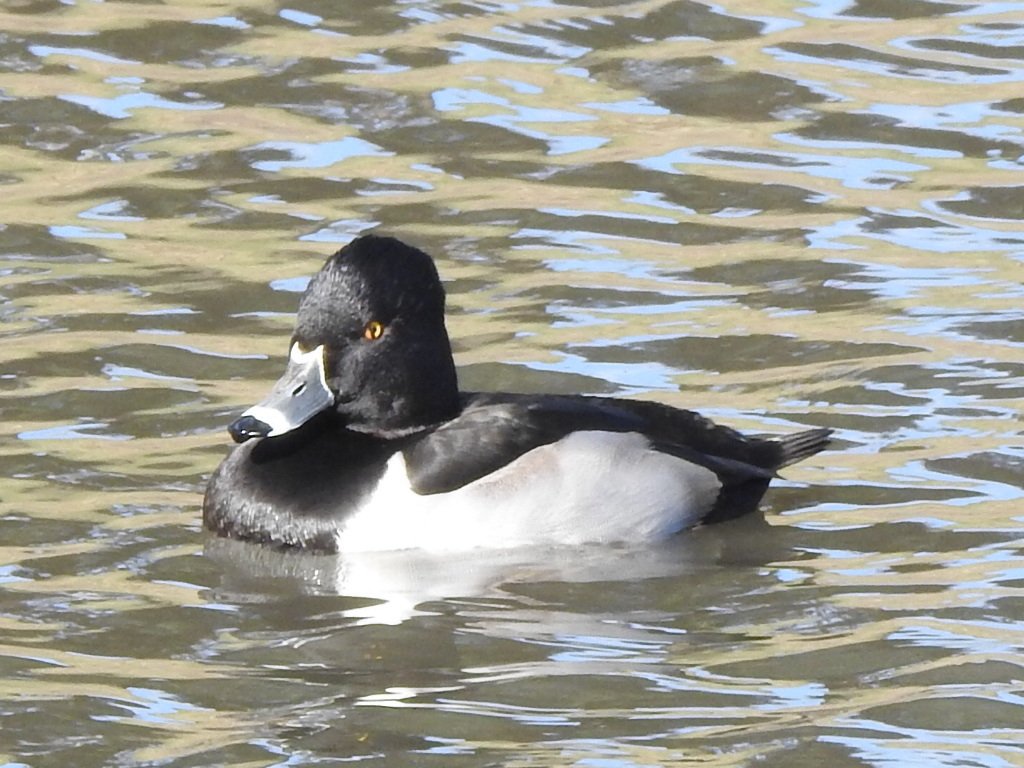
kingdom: Animalia
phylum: Chordata
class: Aves
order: Anseriformes
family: Anatidae
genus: Aythya
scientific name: Aythya collaris
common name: Ring-necked duck
